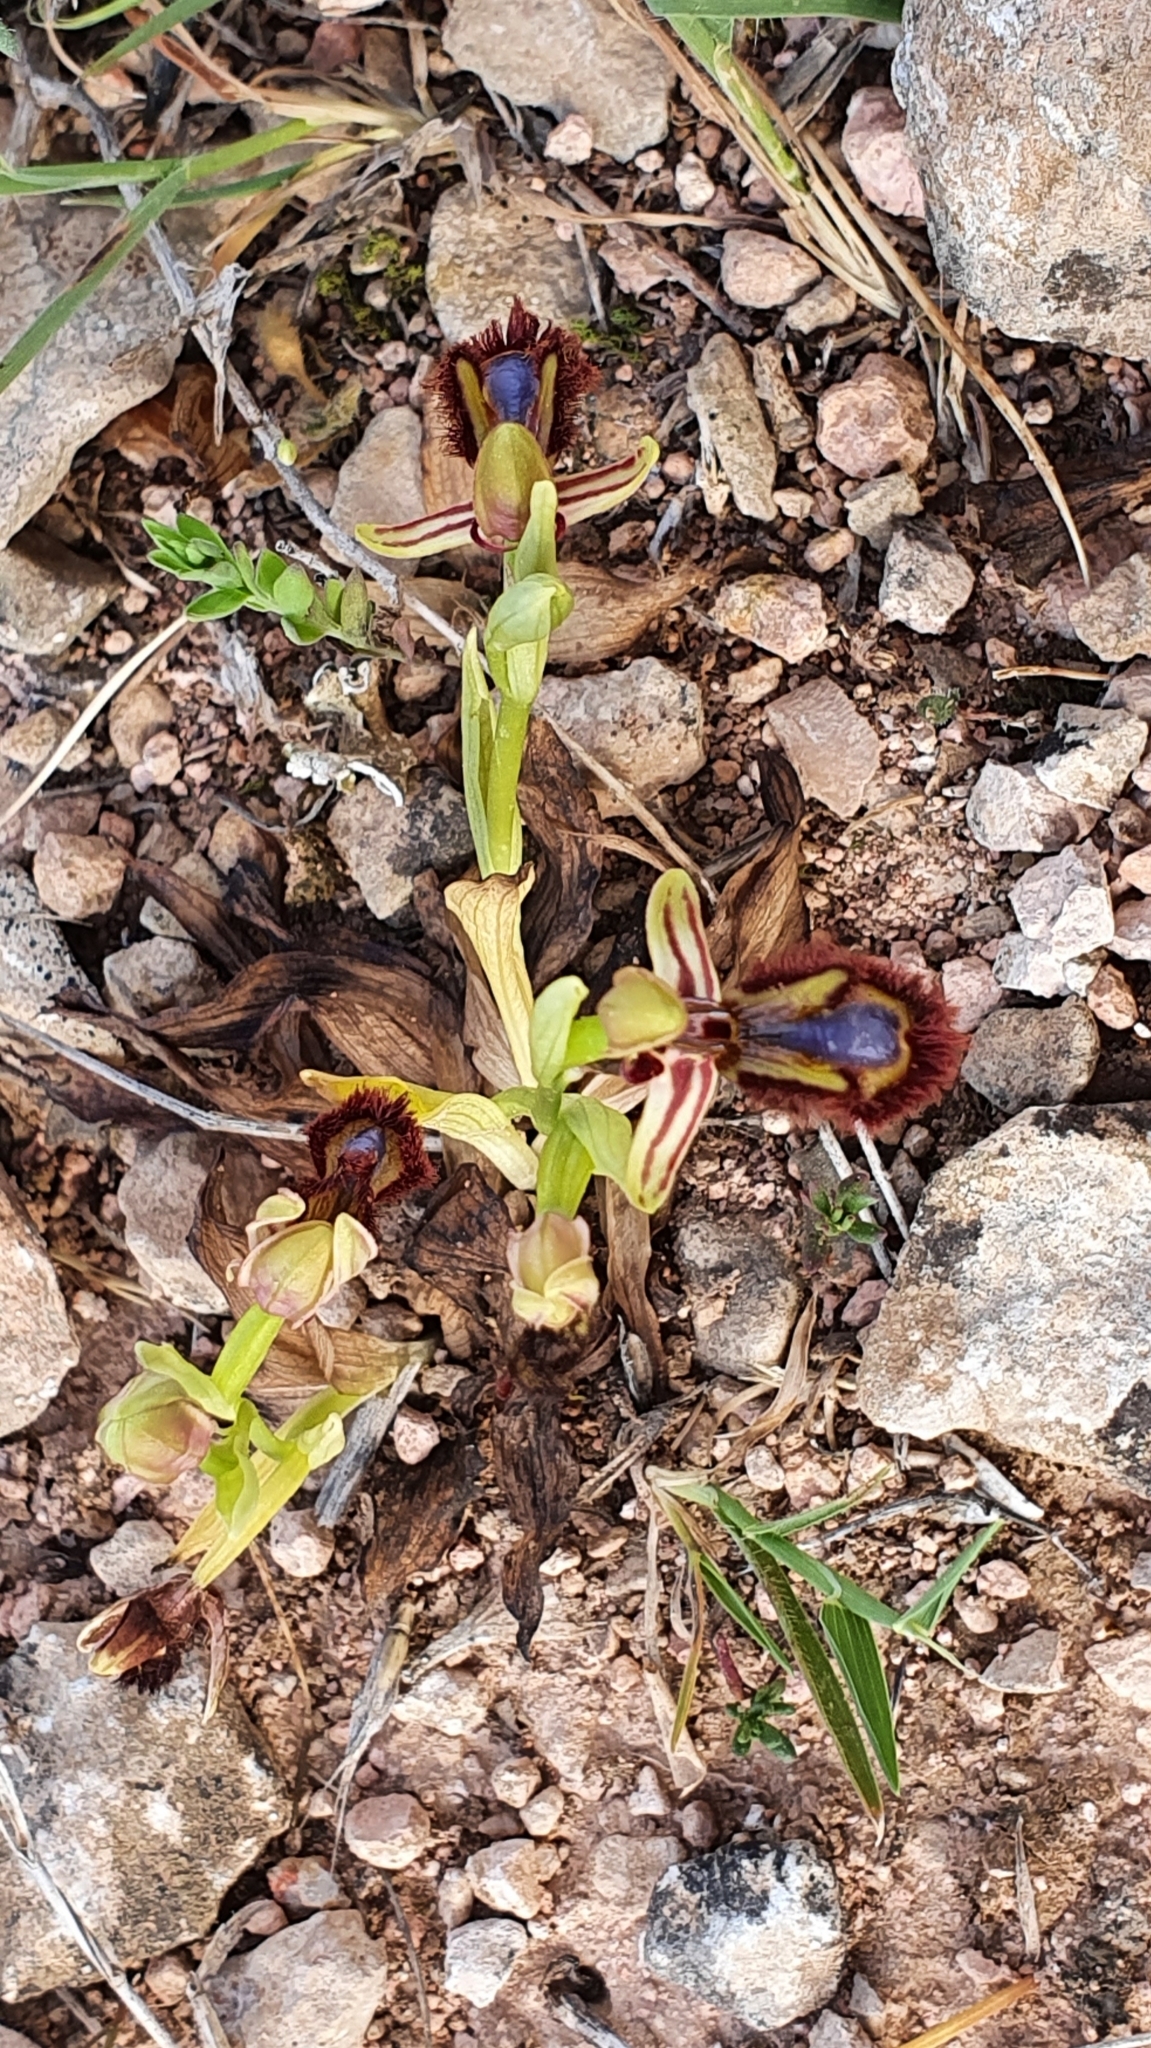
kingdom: Plantae
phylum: Tracheophyta
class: Liliopsida
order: Asparagales
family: Orchidaceae
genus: Ophrys
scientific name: Ophrys speculum
